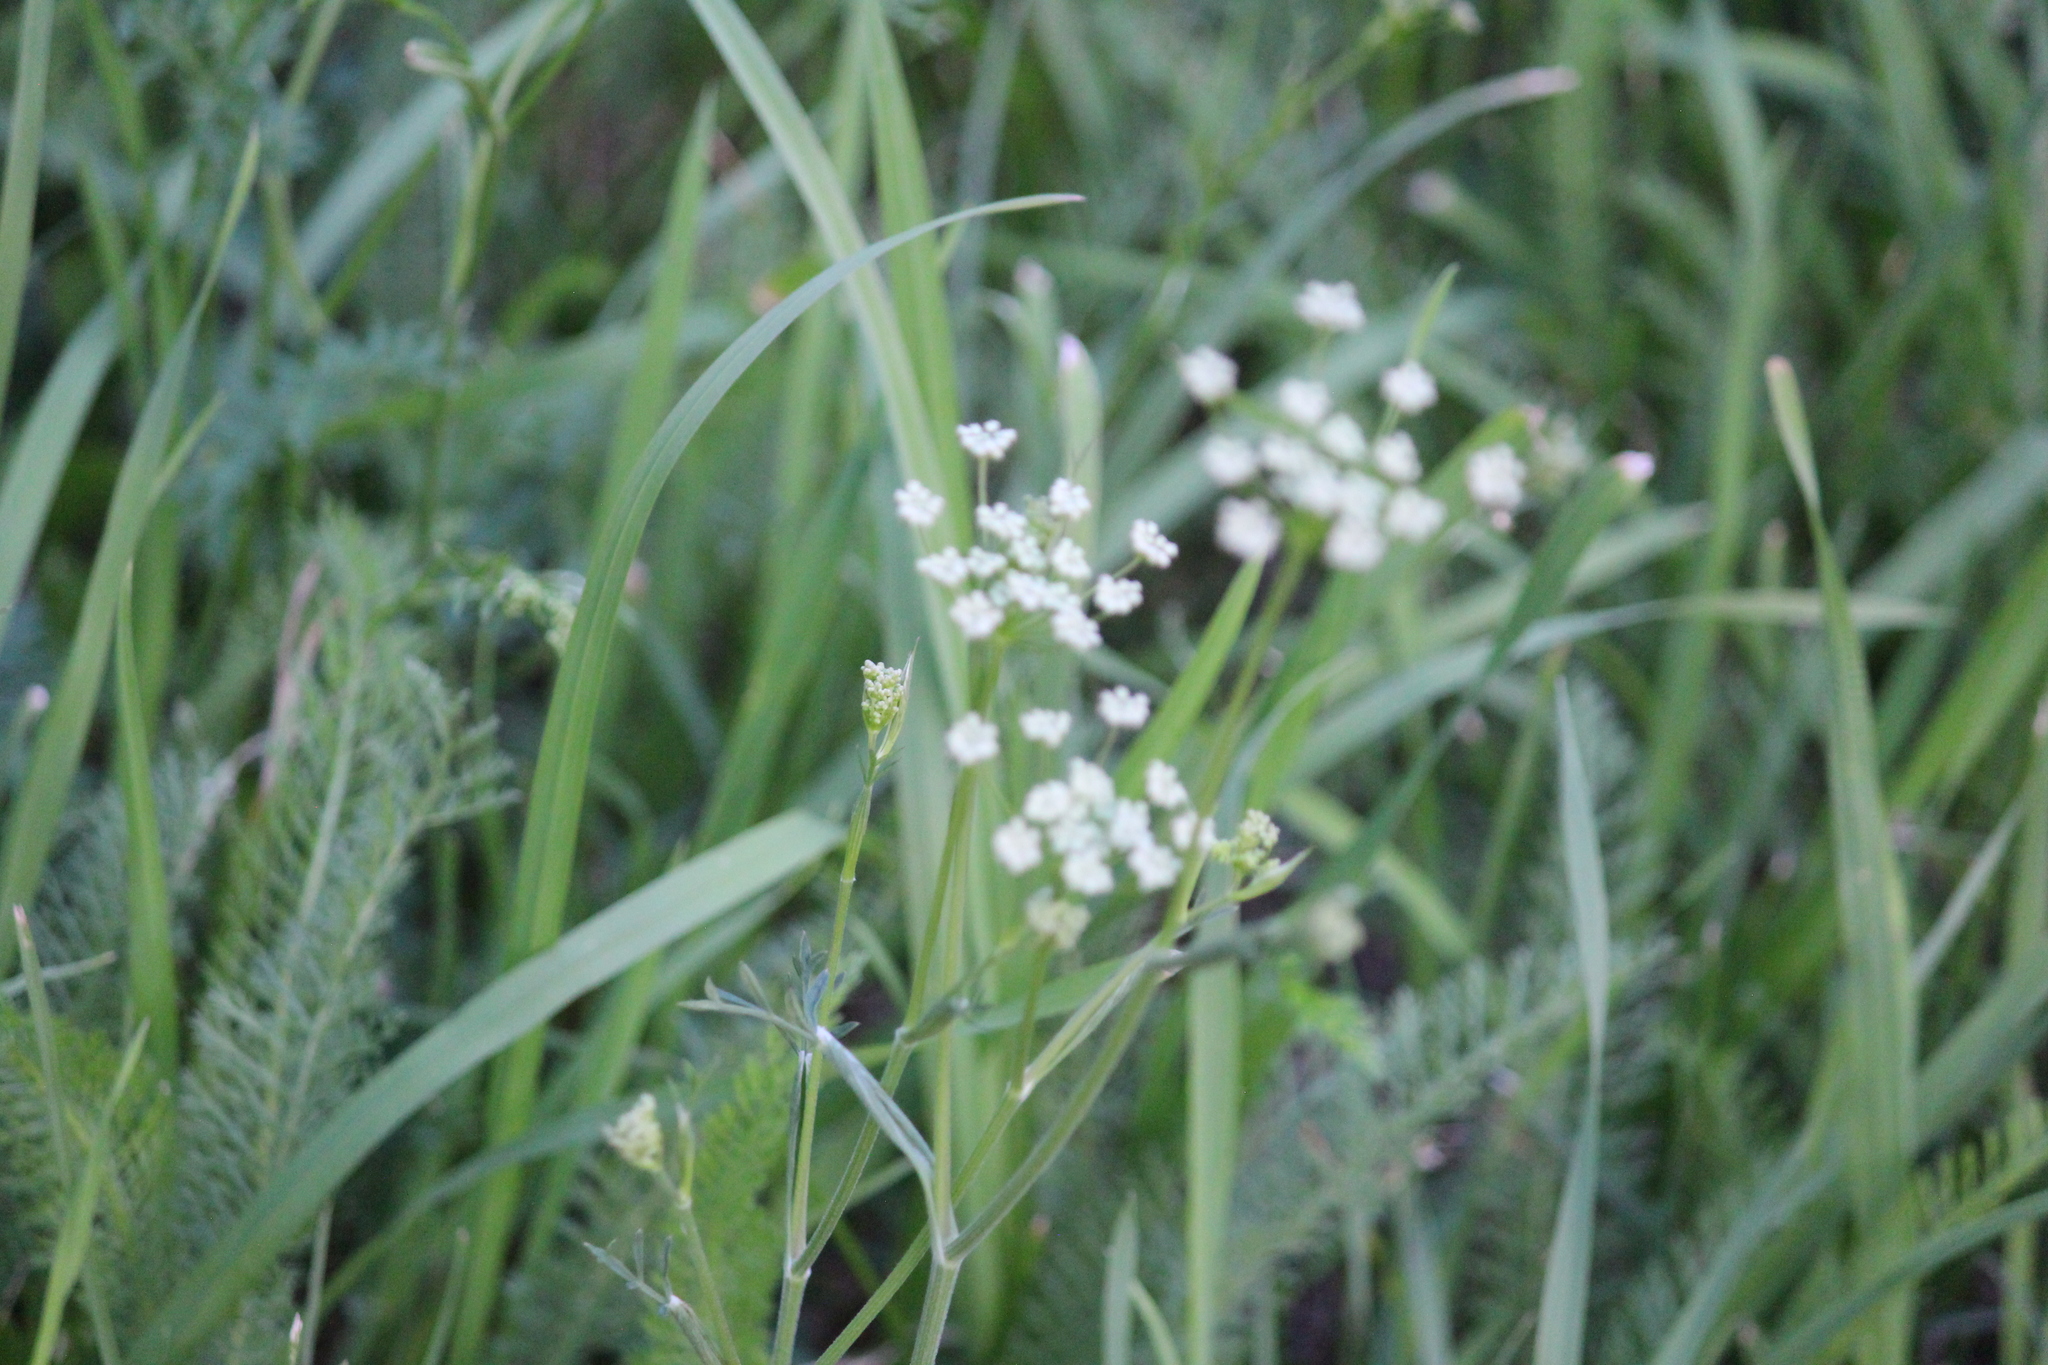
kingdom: Plantae
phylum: Tracheophyta
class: Magnoliopsida
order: Apiales
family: Apiaceae
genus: Pimpinella
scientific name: Pimpinella saxifraga
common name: Burnet-saxifrage
